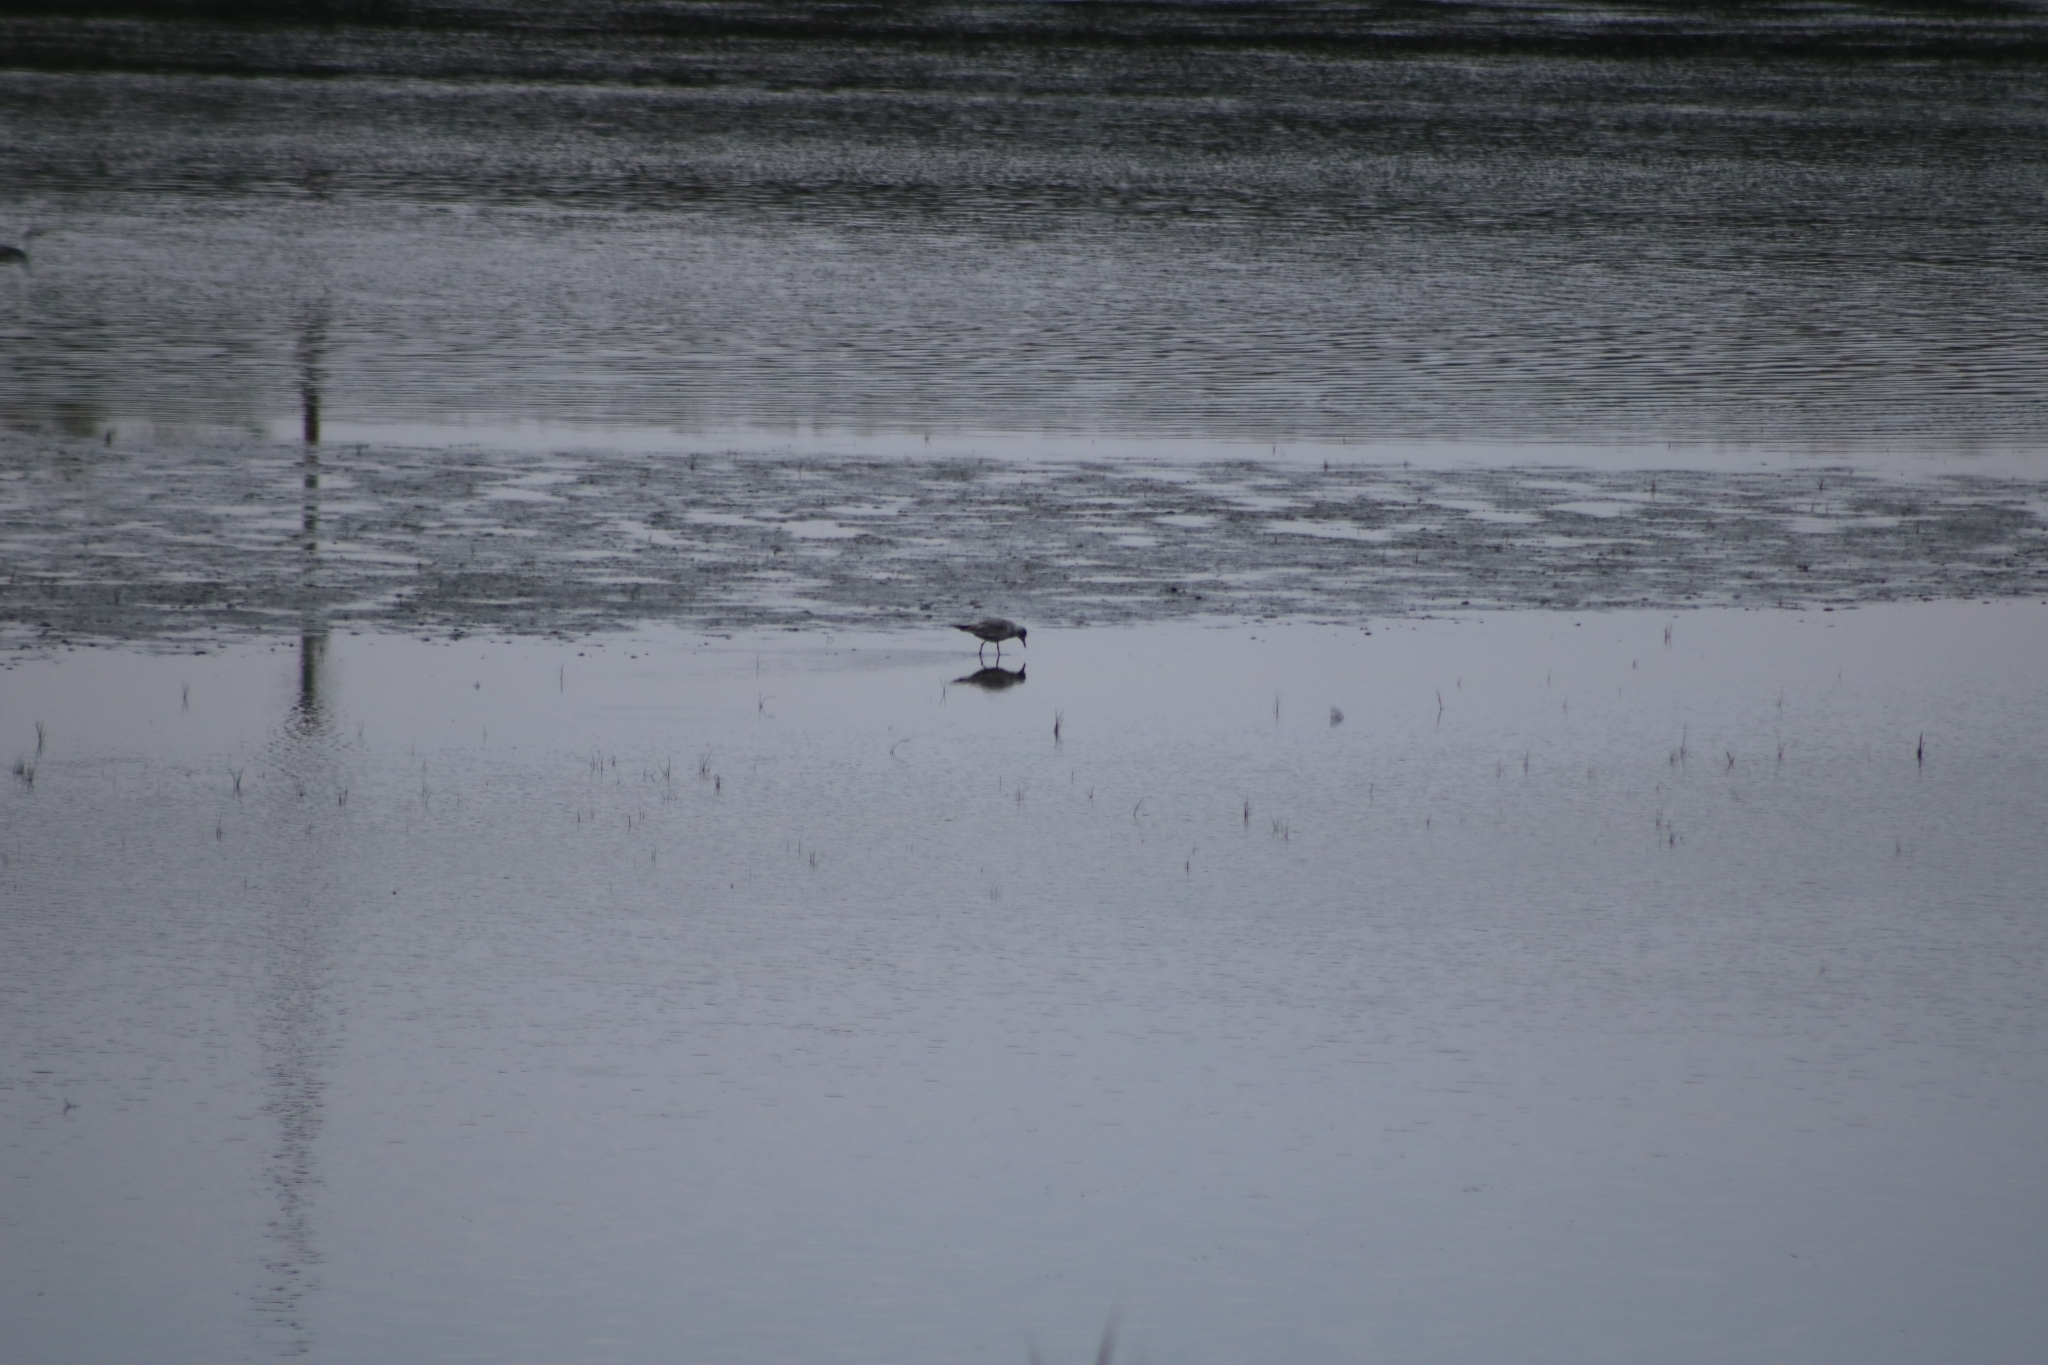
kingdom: Animalia
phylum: Chordata
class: Aves
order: Charadriiformes
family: Laridae
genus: Chroicocephalus
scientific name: Chroicocephalus ridibundus
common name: Black-headed gull
